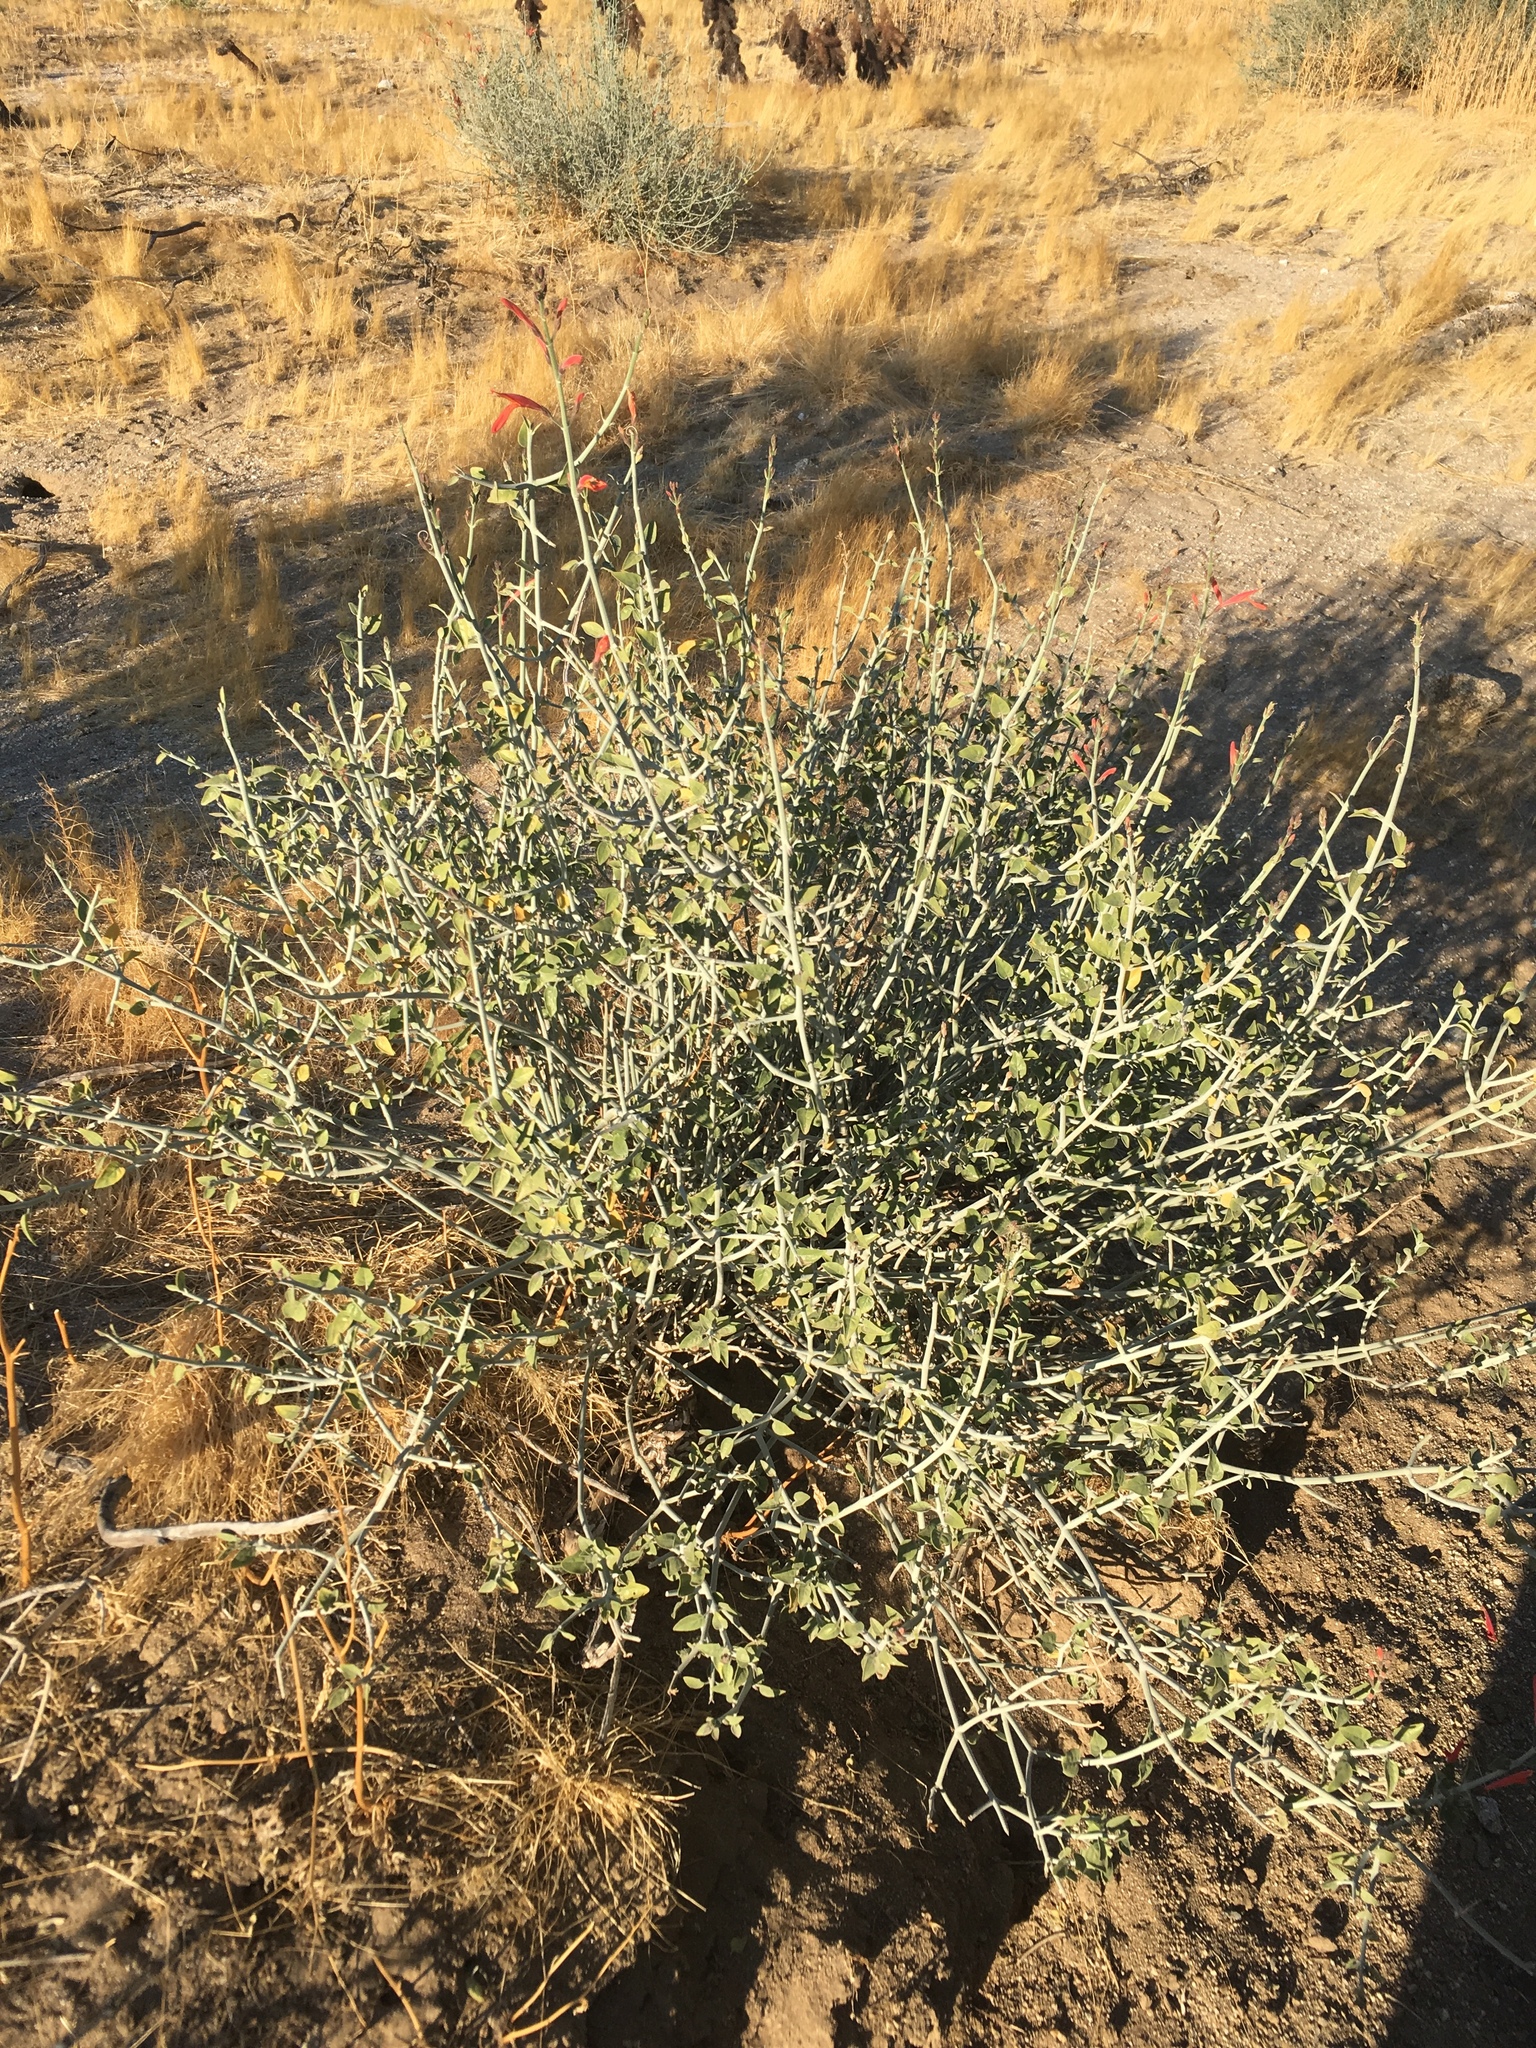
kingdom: Plantae
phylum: Tracheophyta
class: Magnoliopsida
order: Lamiales
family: Acanthaceae
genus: Justicia
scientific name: Justicia californica
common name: Chuparosa-honeysuckle
